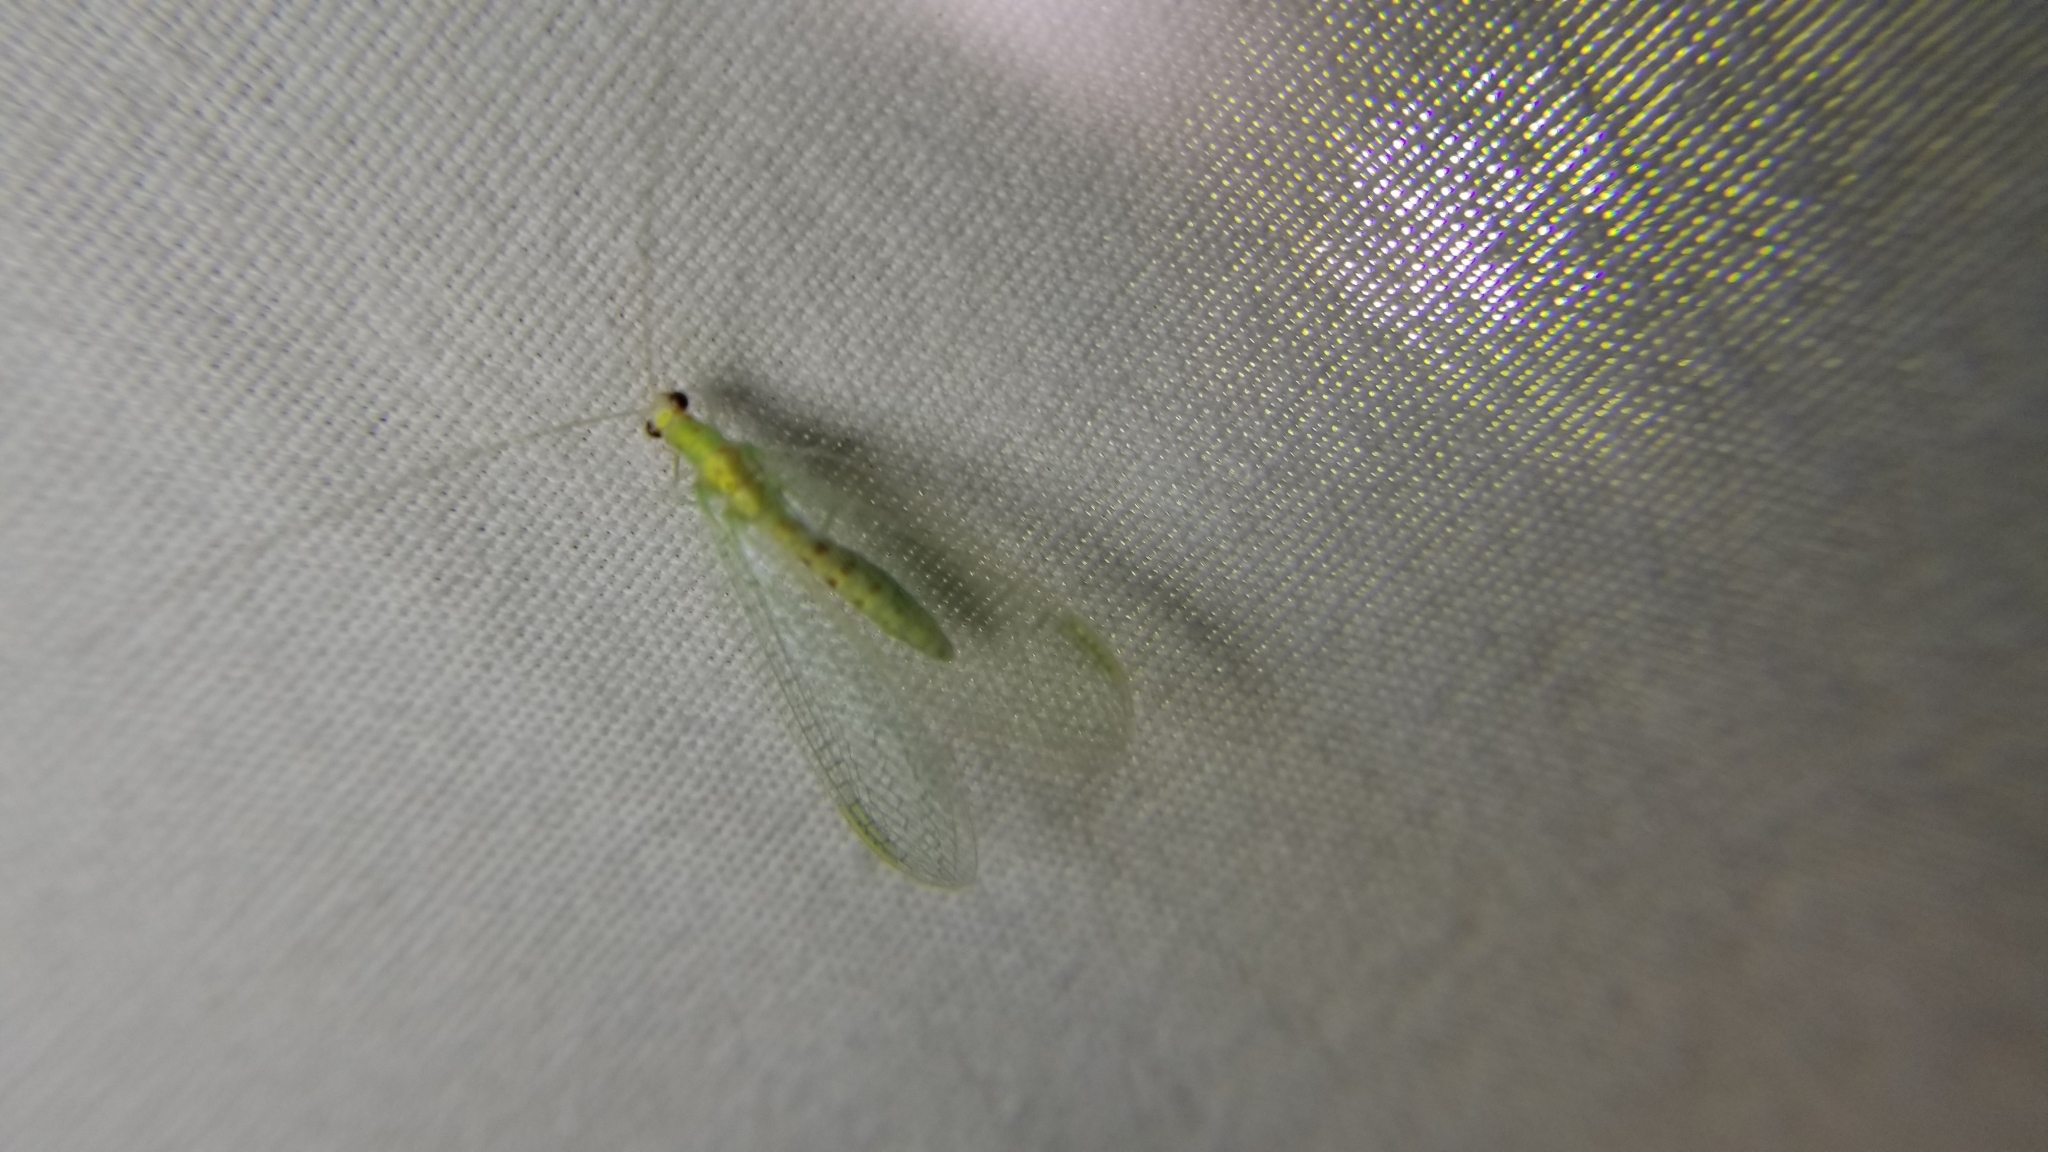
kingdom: Animalia
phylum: Arthropoda
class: Insecta
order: Neuroptera
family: Chrysopidae
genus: Chrysopa
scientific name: Chrysopa quadripunctata
